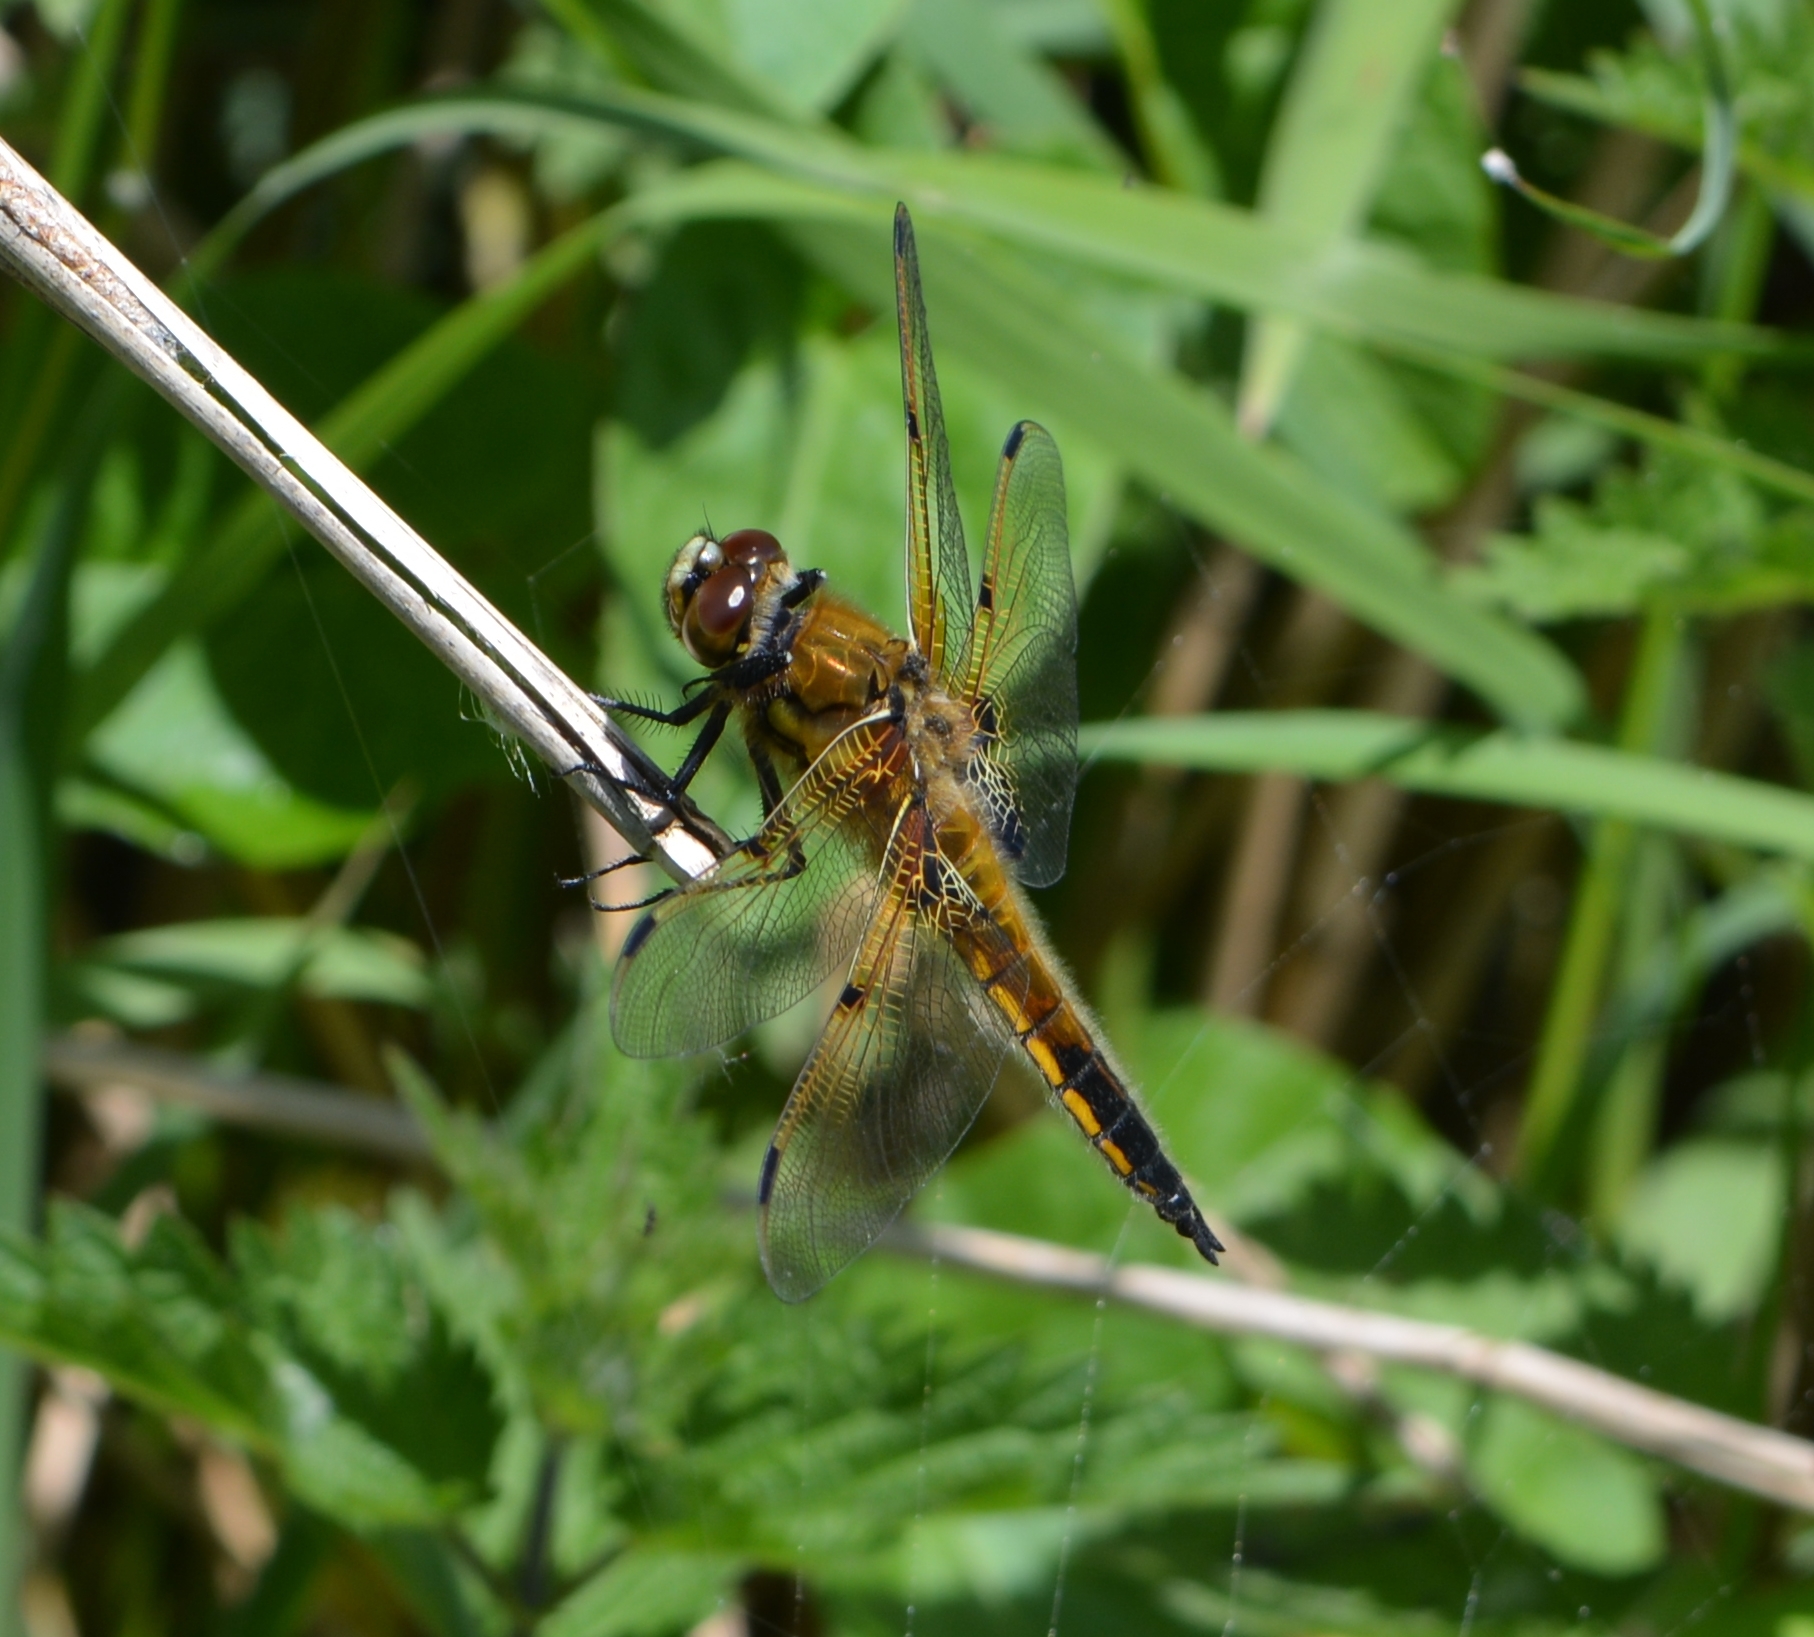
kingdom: Animalia
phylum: Arthropoda
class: Insecta
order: Odonata
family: Libellulidae
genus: Libellula
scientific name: Libellula quadrimaculata
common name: Four-spotted chaser
